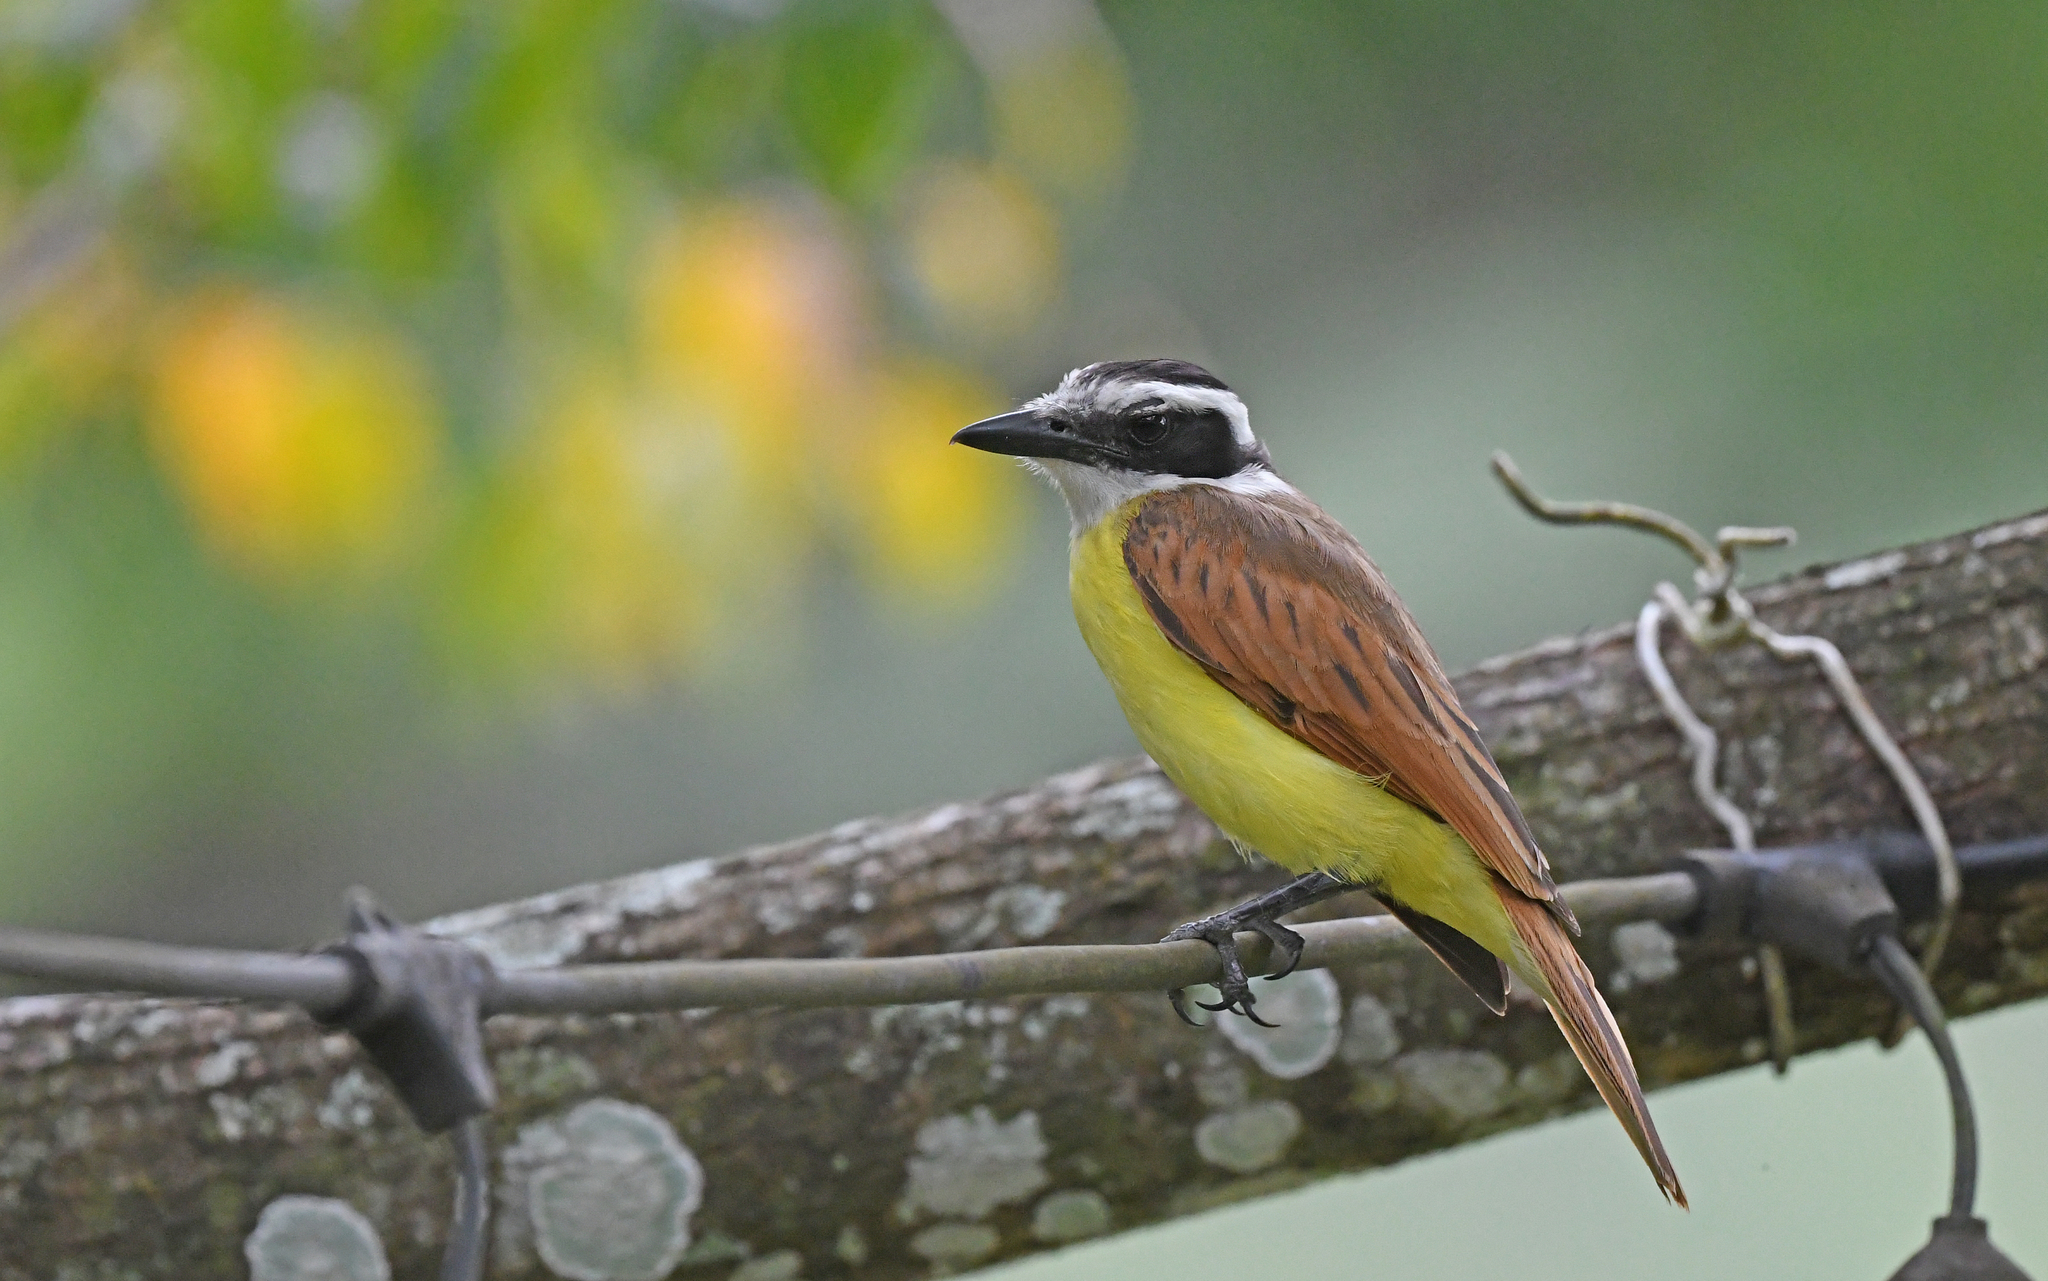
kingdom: Animalia
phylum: Chordata
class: Aves
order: Passeriformes
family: Tyrannidae
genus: Pitangus
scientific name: Pitangus sulphuratus
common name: Great kiskadee
